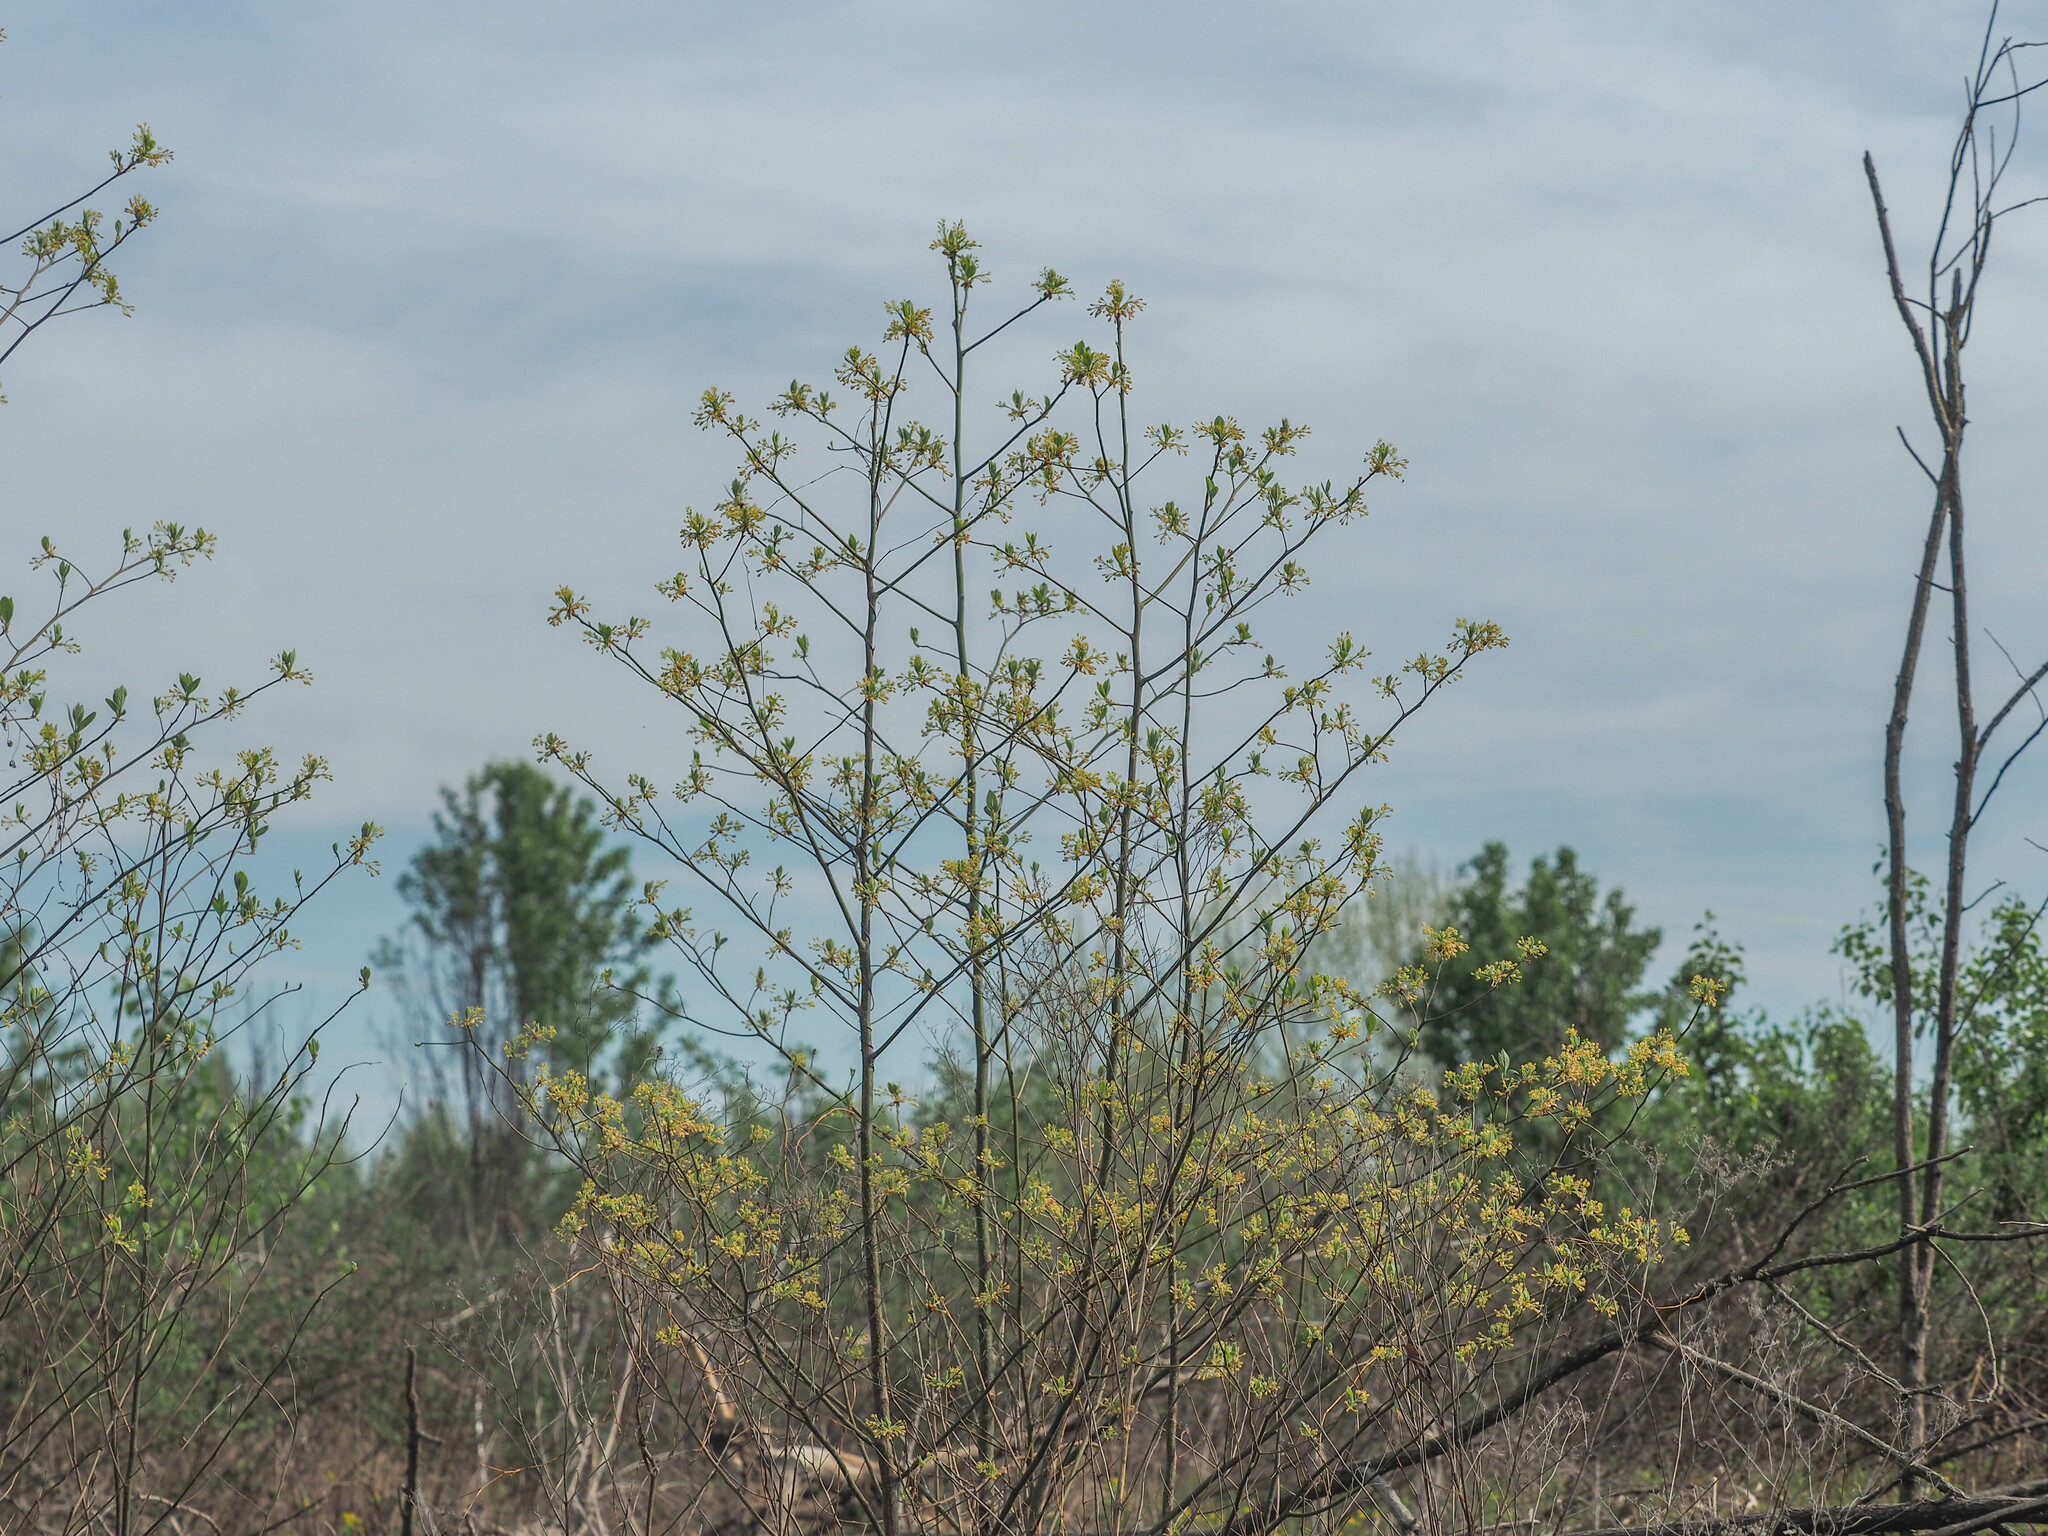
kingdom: Plantae
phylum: Tracheophyta
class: Magnoliopsida
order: Laurales
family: Lauraceae
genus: Sassafras
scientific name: Sassafras albidum
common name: Sassafras
